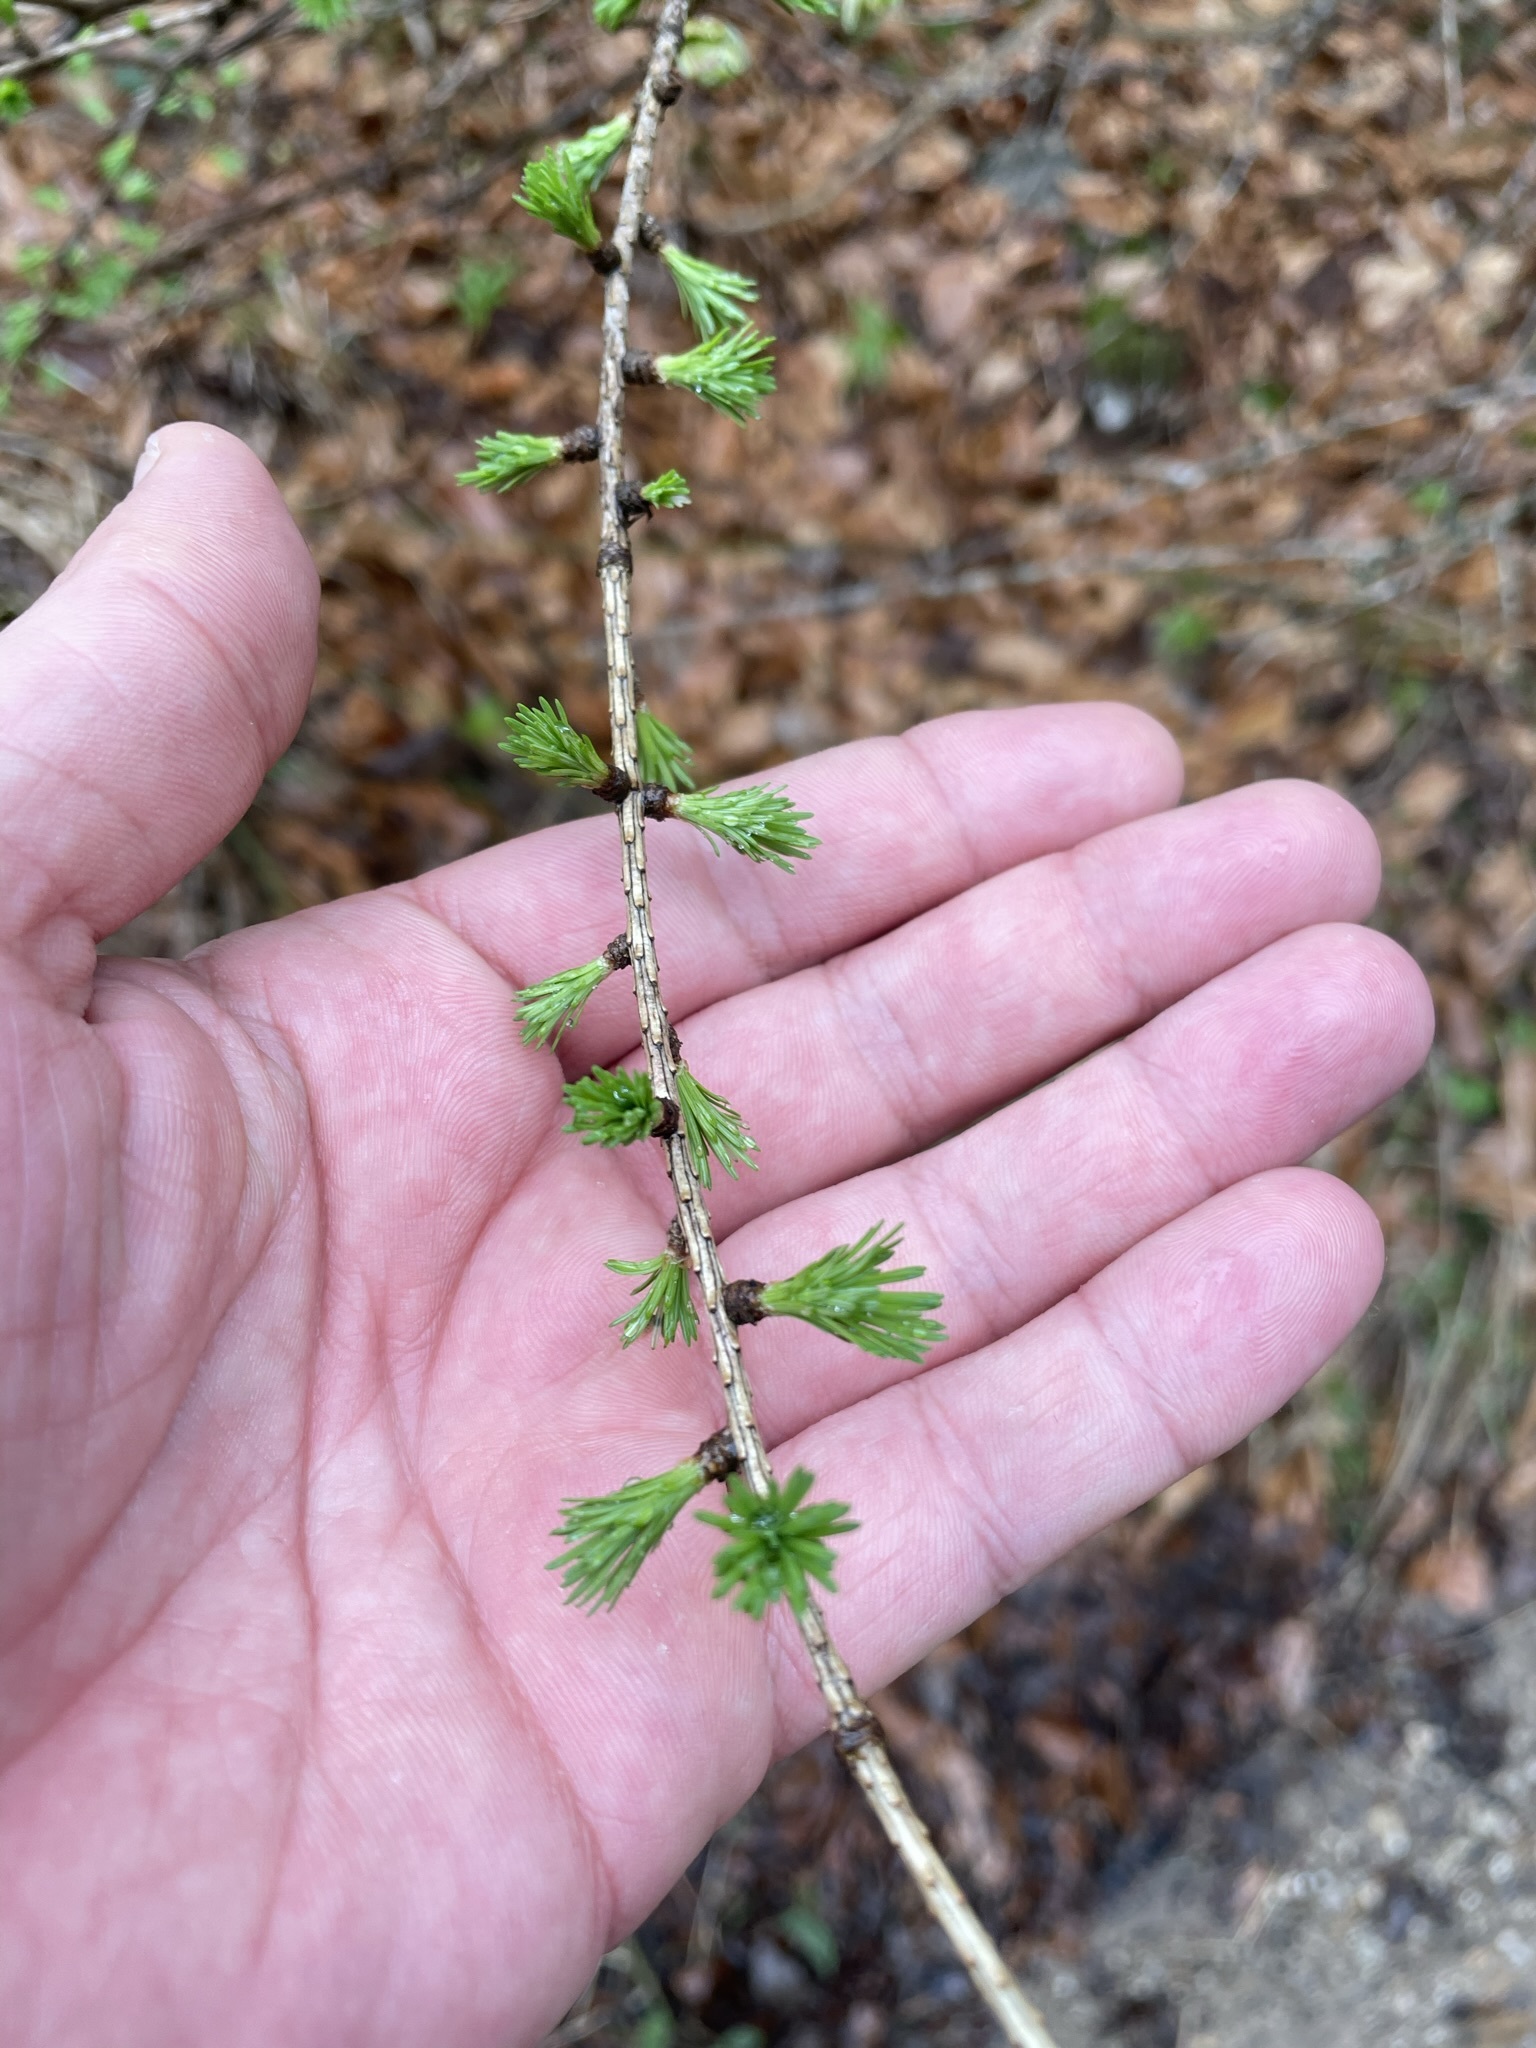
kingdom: Plantae
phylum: Tracheophyta
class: Pinopsida
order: Pinales
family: Pinaceae
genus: Larix
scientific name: Larix decidua
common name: European larch
